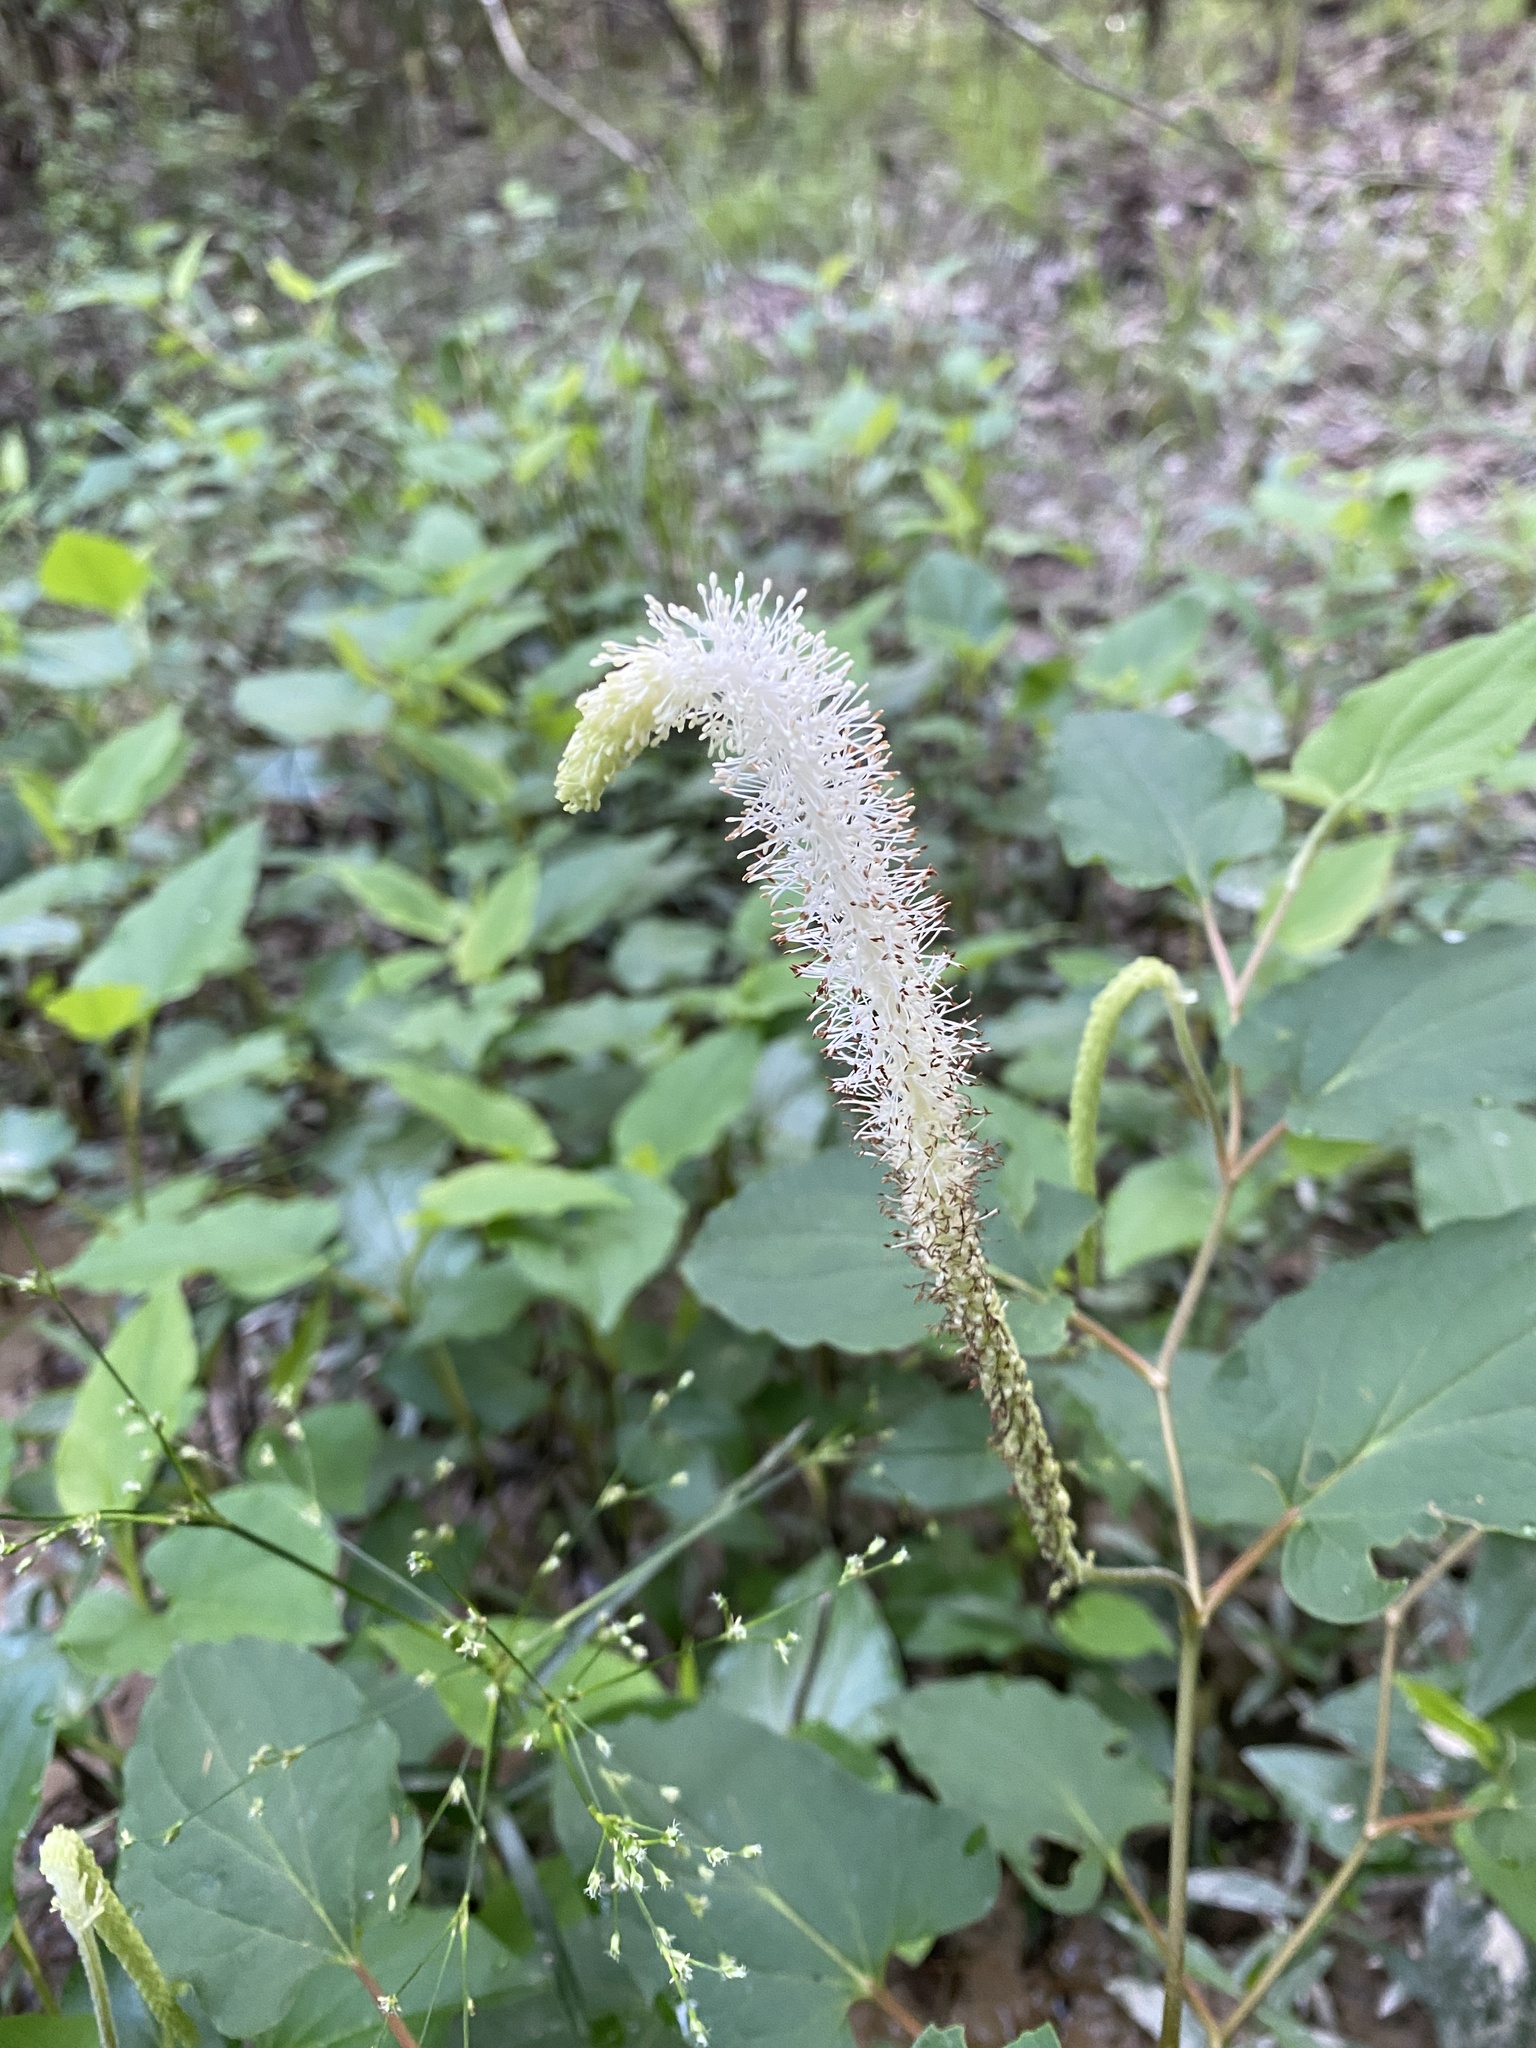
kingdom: Plantae
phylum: Tracheophyta
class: Magnoliopsida
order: Piperales
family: Saururaceae
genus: Saururus
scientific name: Saururus cernuus
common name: Lizard's-tail
